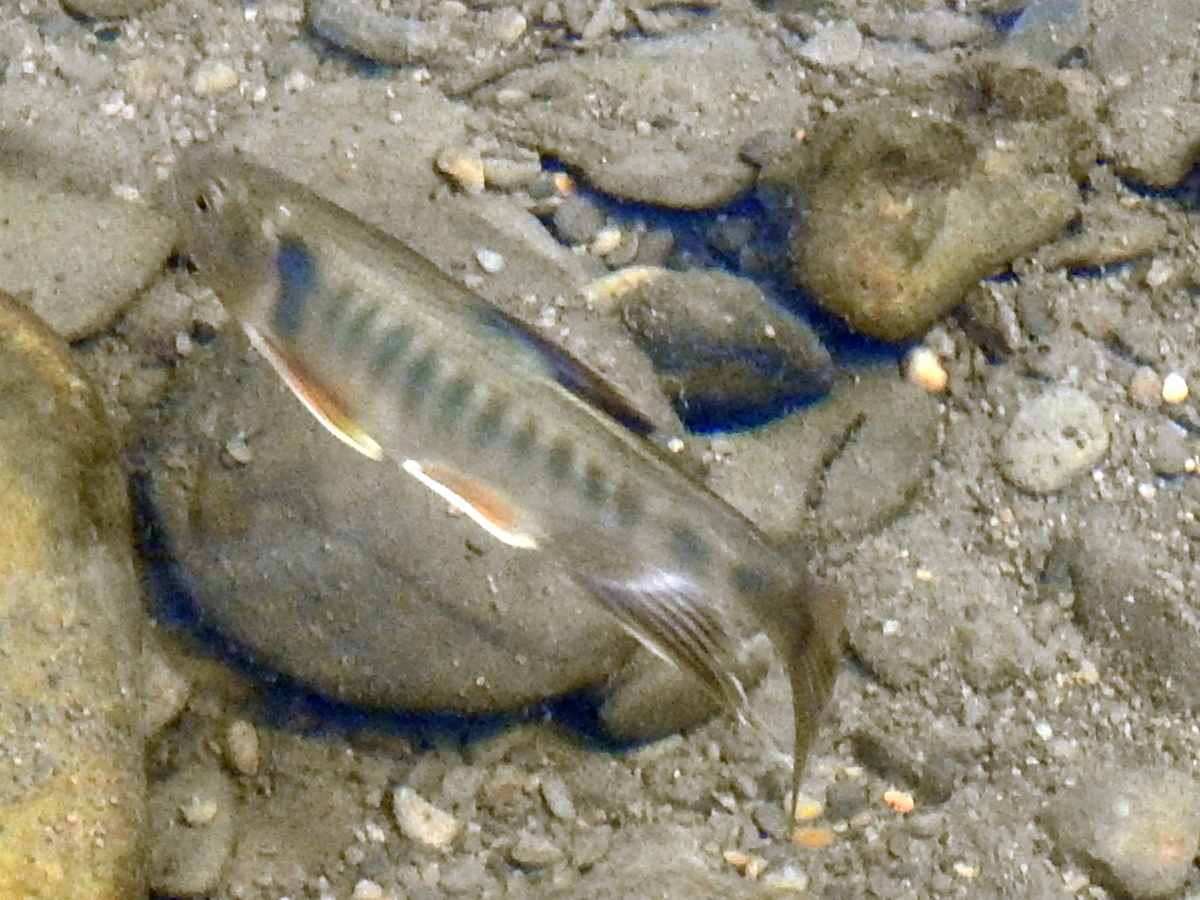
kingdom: Animalia
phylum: Chordata
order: Cypriniformes
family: Cyprinidae
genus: Opsariichthys
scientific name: Opsariichthys pachycephalus
